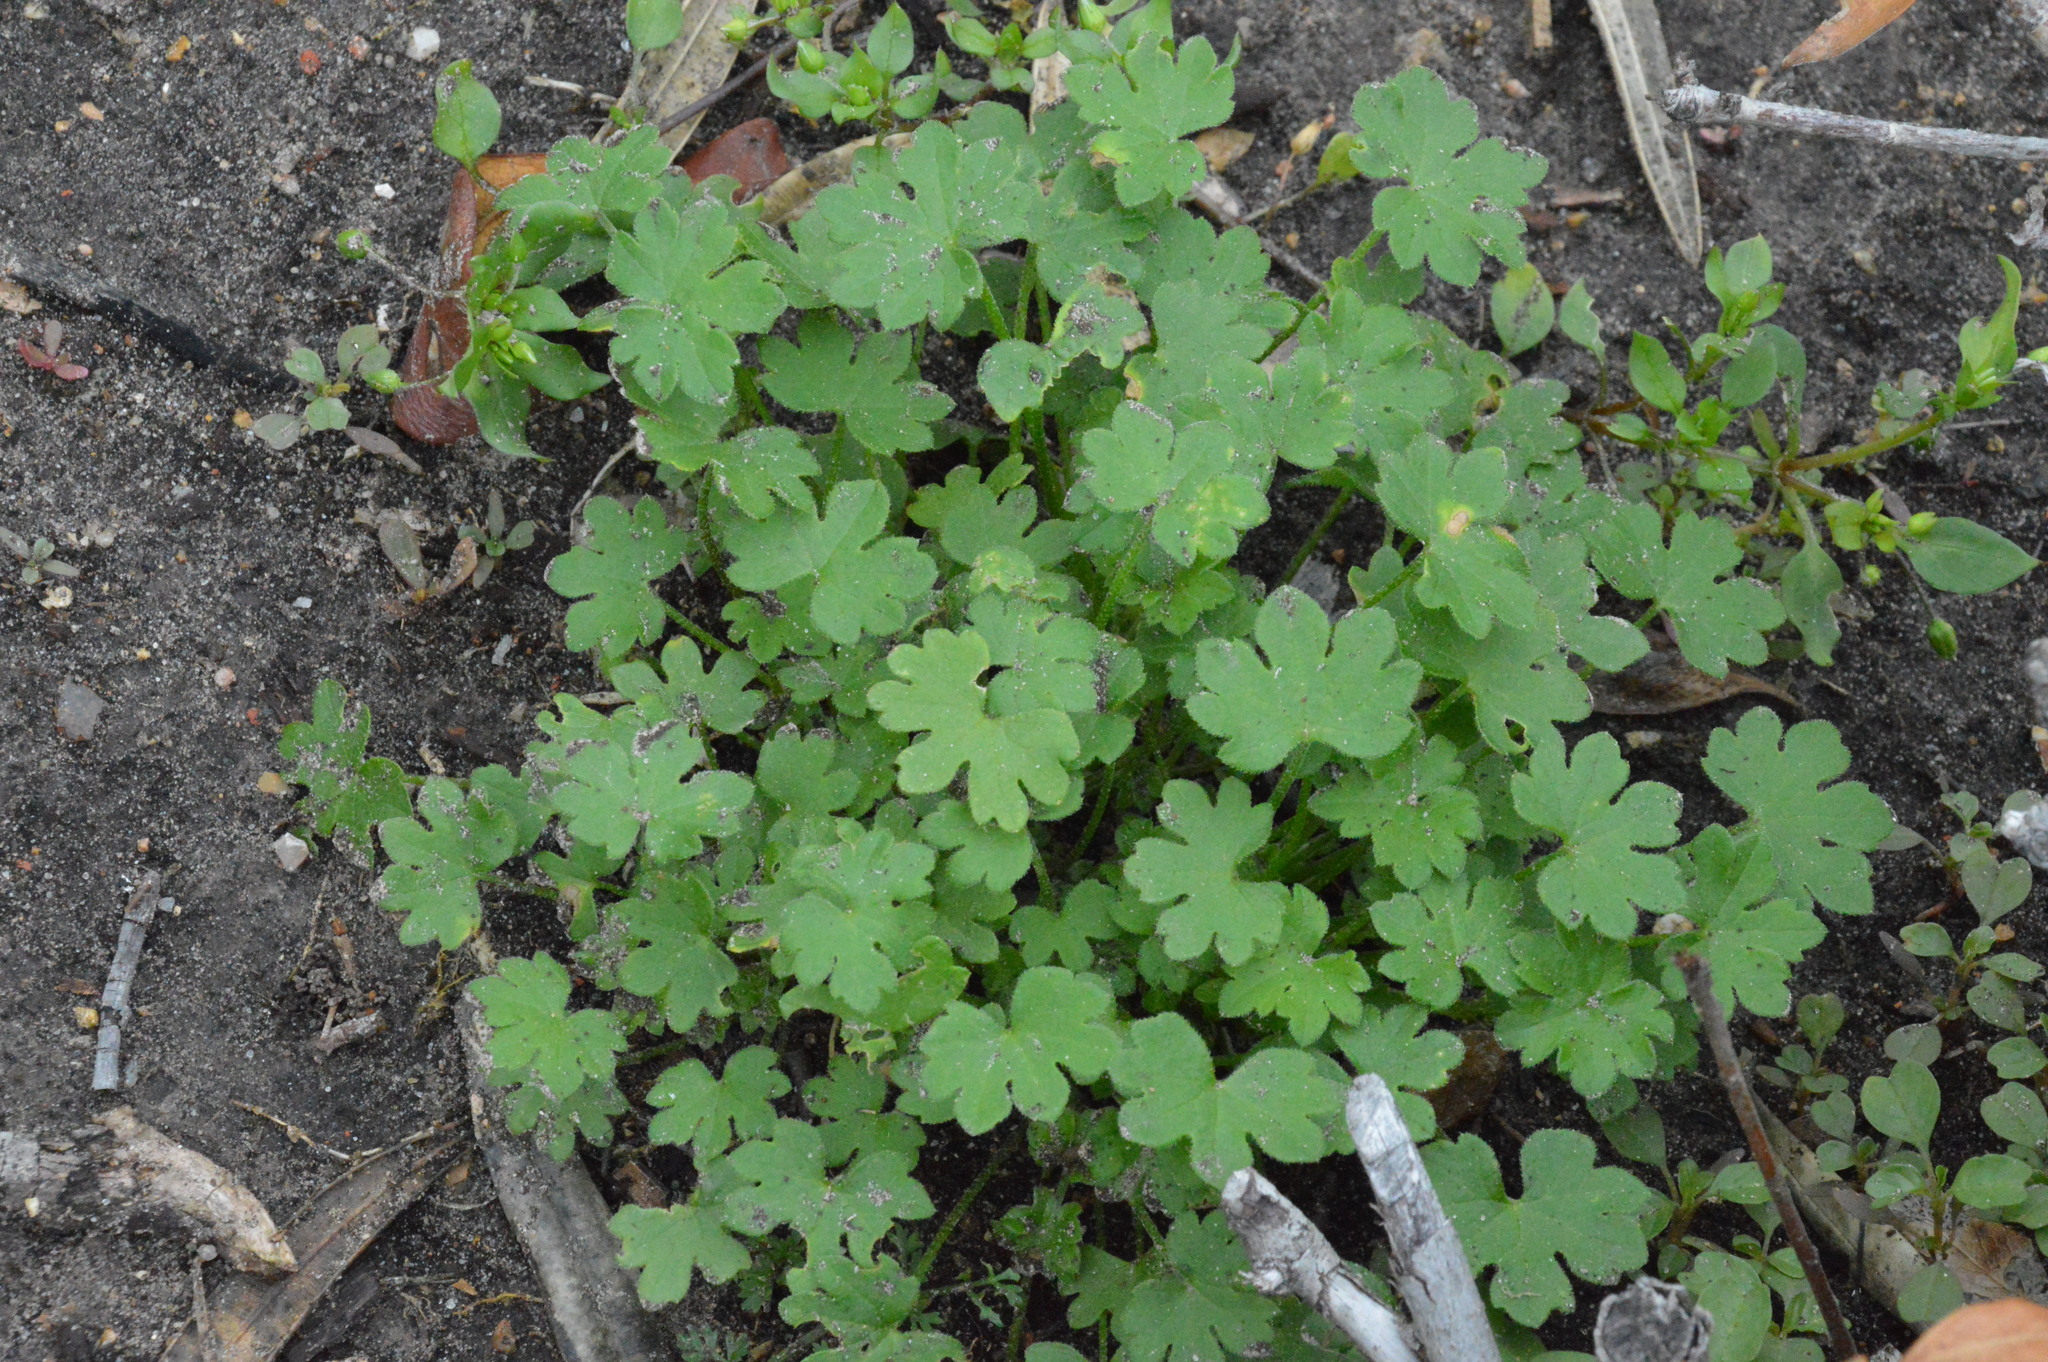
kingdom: Plantae
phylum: Tracheophyta
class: Magnoliopsida
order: Apiales
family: Apiaceae
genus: Bowlesia
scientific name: Bowlesia incana
